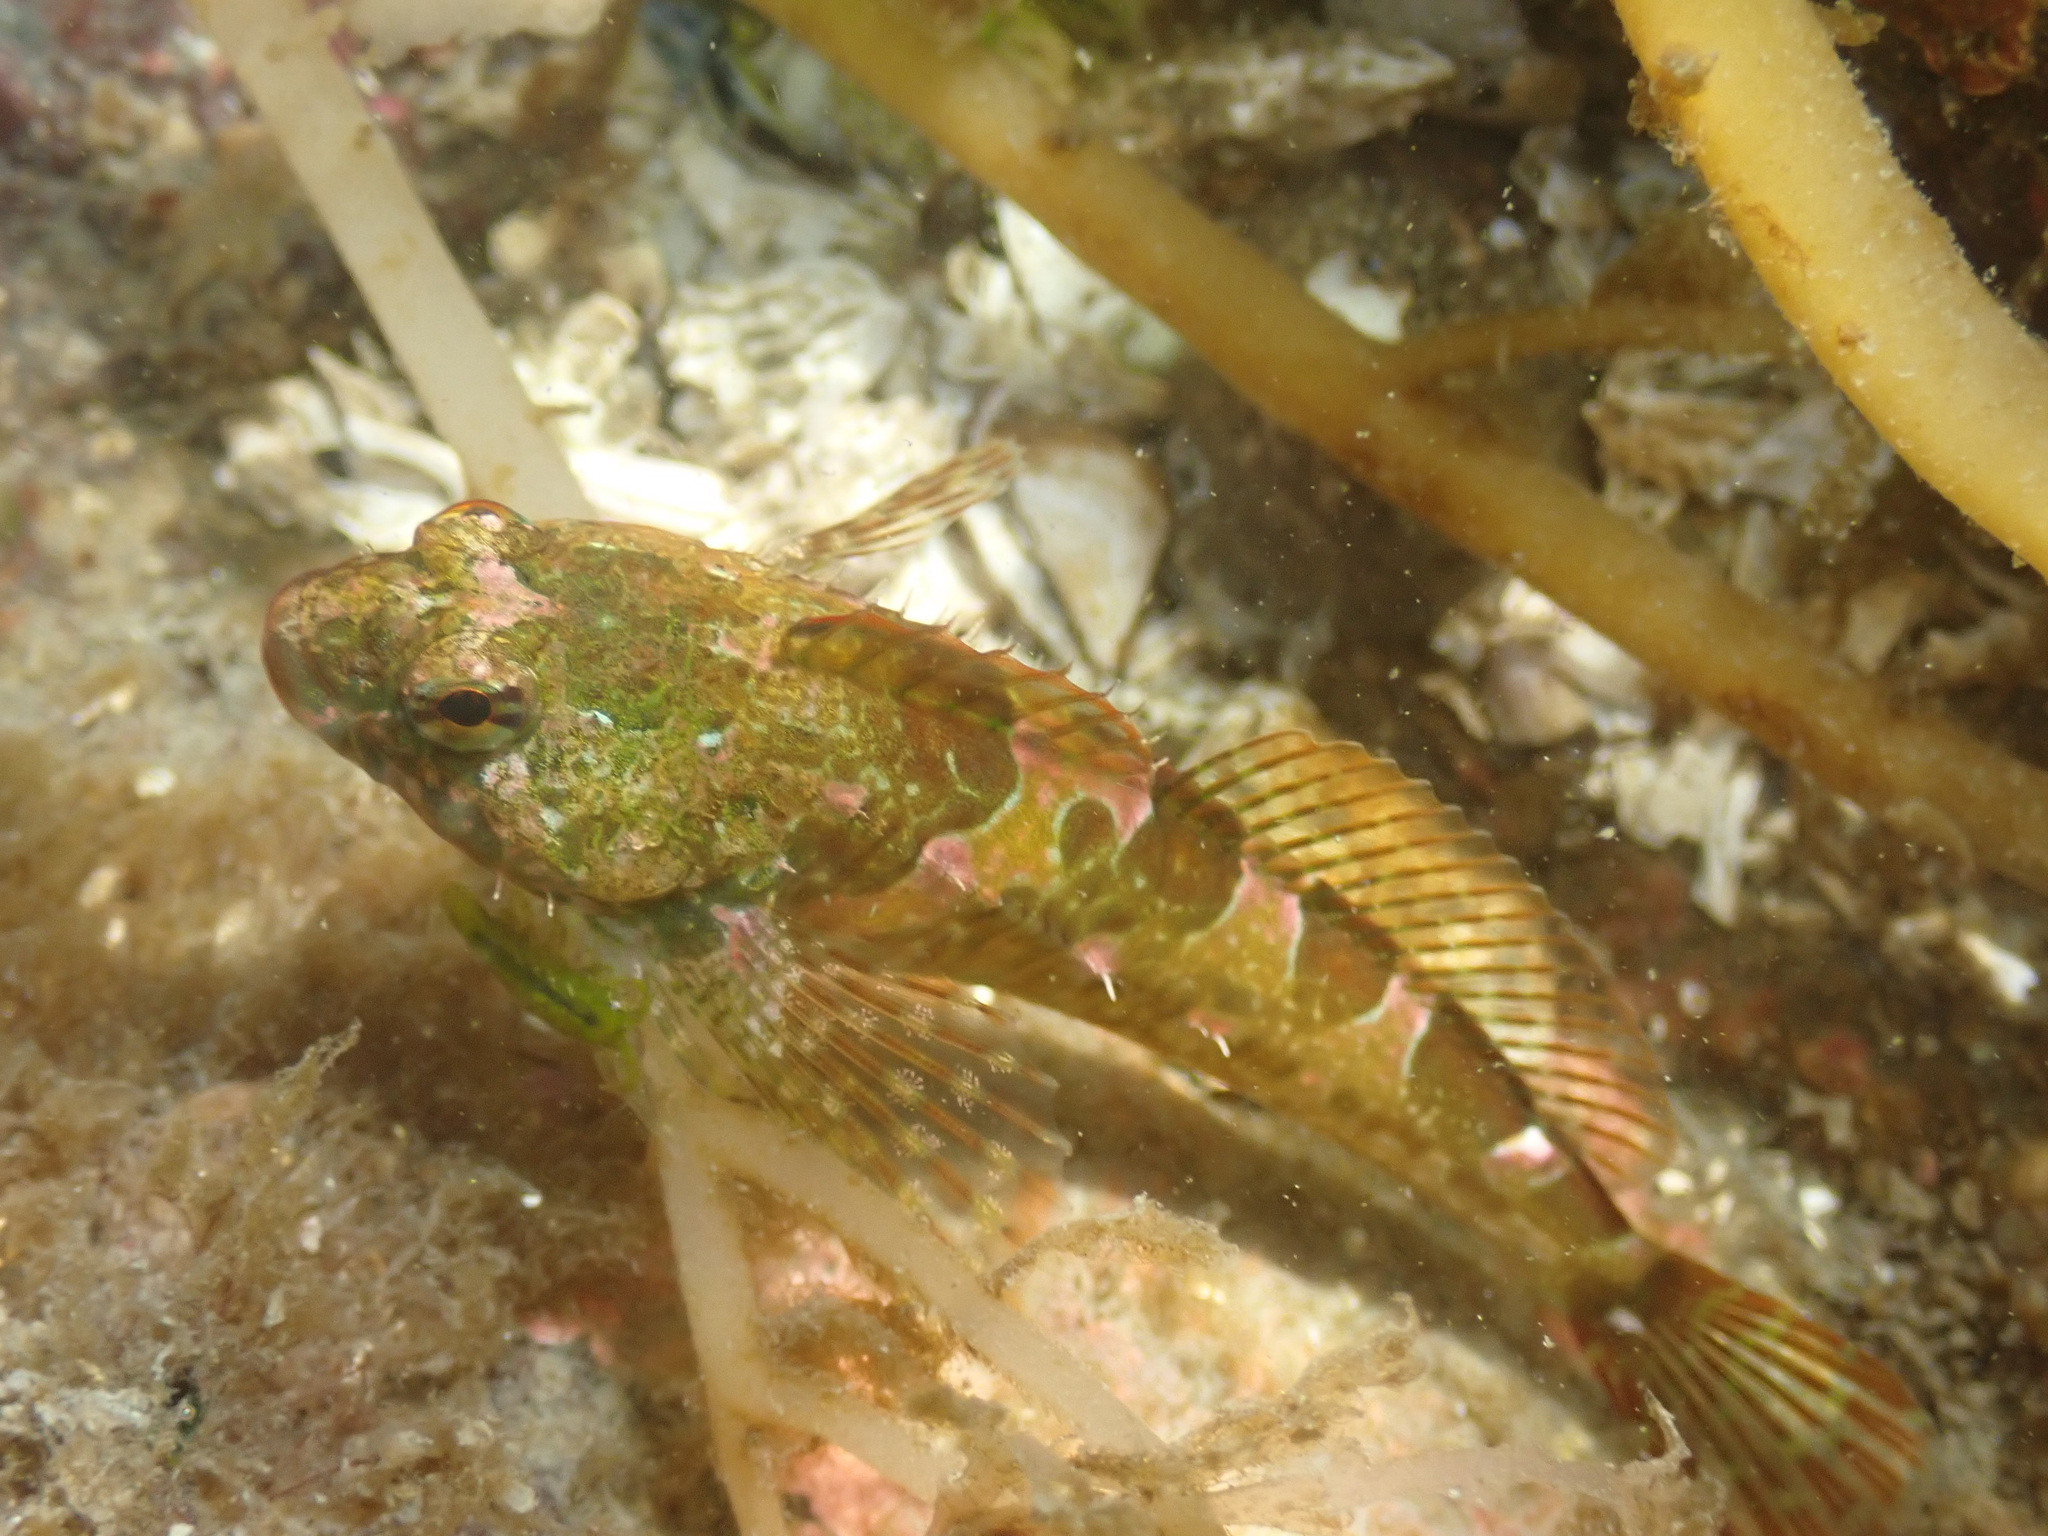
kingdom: Animalia
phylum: Chordata
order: Scorpaeniformes
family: Cottidae
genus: Oligocottus
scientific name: Oligocottus maculosus
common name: Tidepool sculpin
